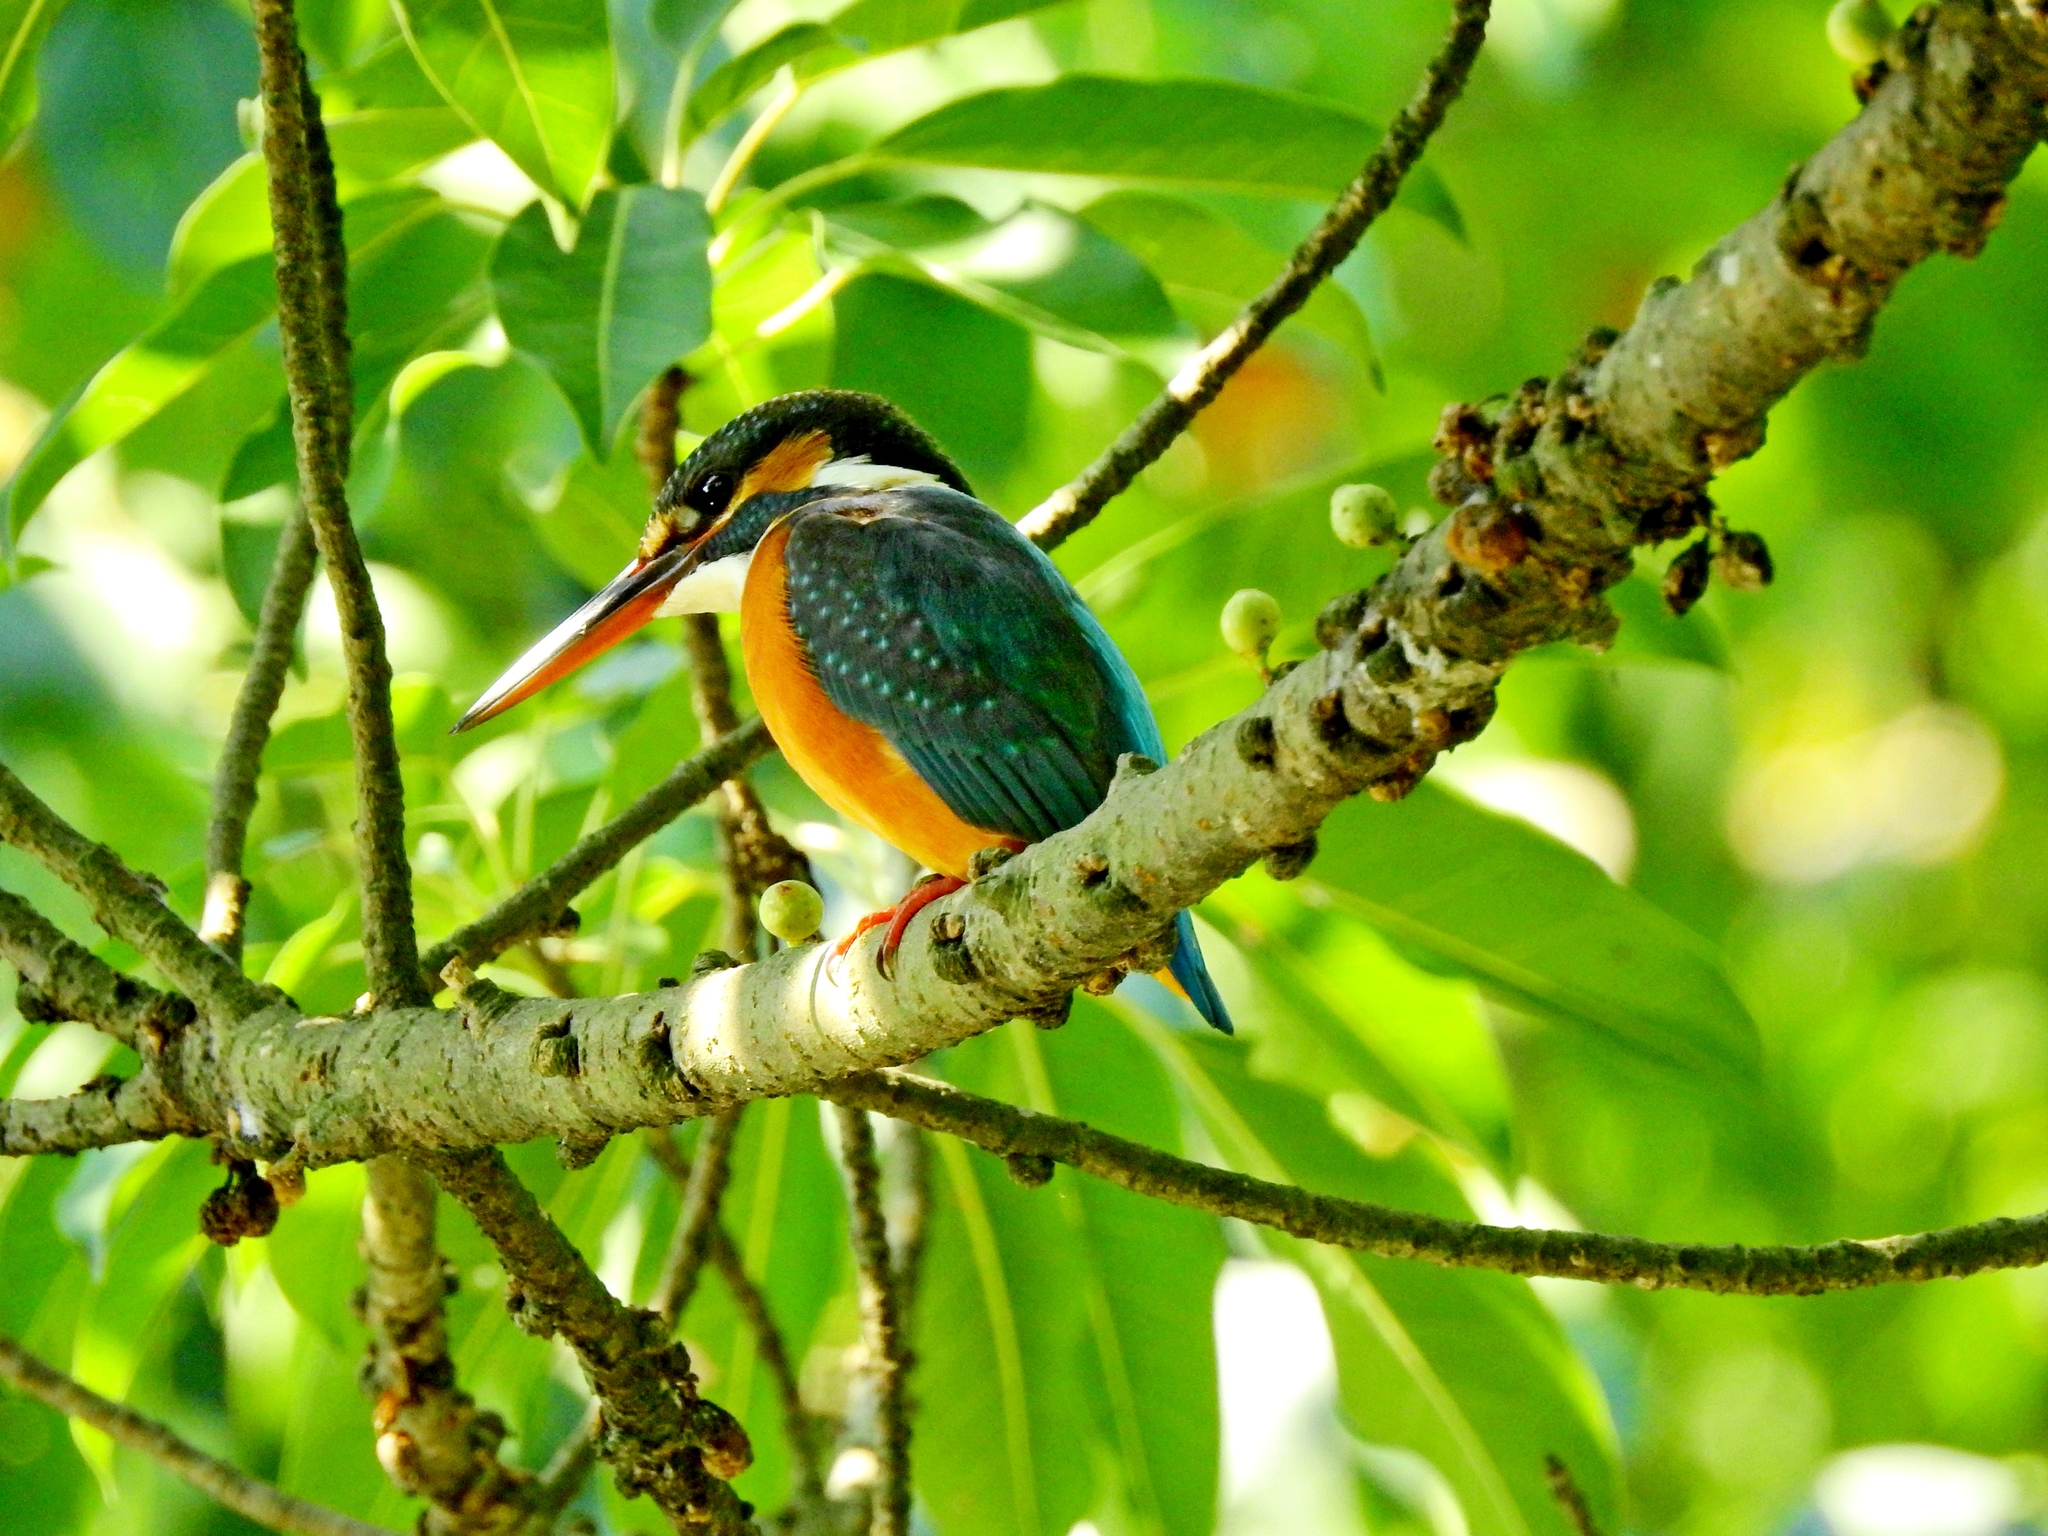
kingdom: Animalia
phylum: Chordata
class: Aves
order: Coraciiformes
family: Alcedinidae
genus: Alcedo
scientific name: Alcedo atthis
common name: Common kingfisher
